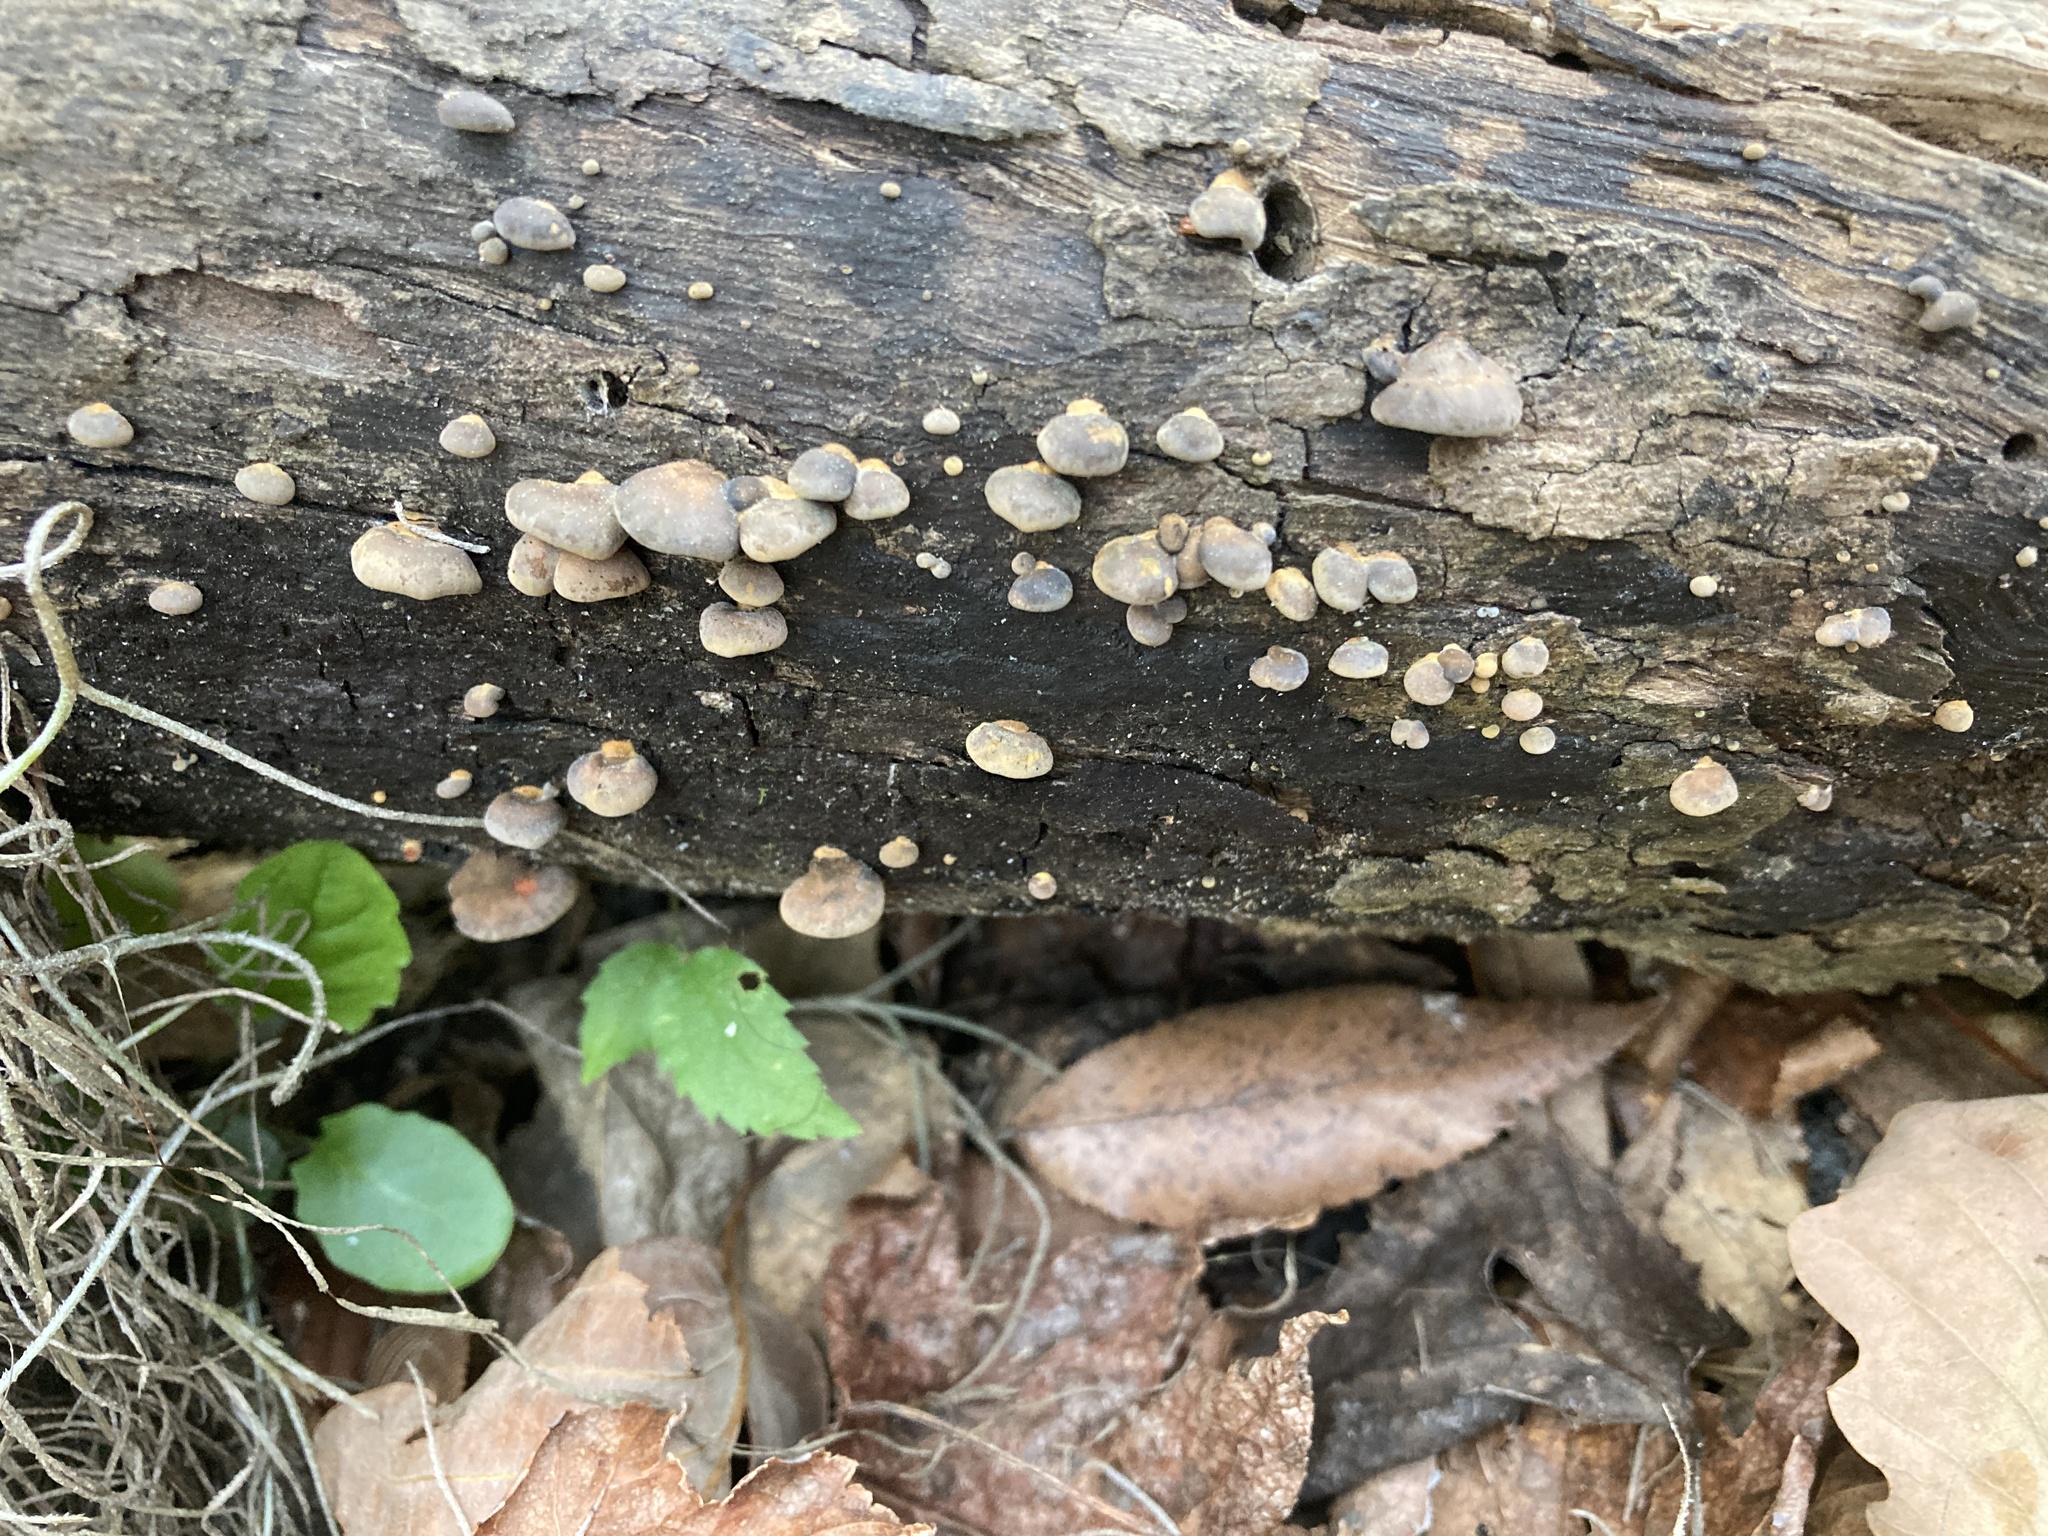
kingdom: Fungi
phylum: Basidiomycota
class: Agaricomycetes
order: Agaricales
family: Omphalotaceae
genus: Anthracophyllum
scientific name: Anthracophyllum lateritium
